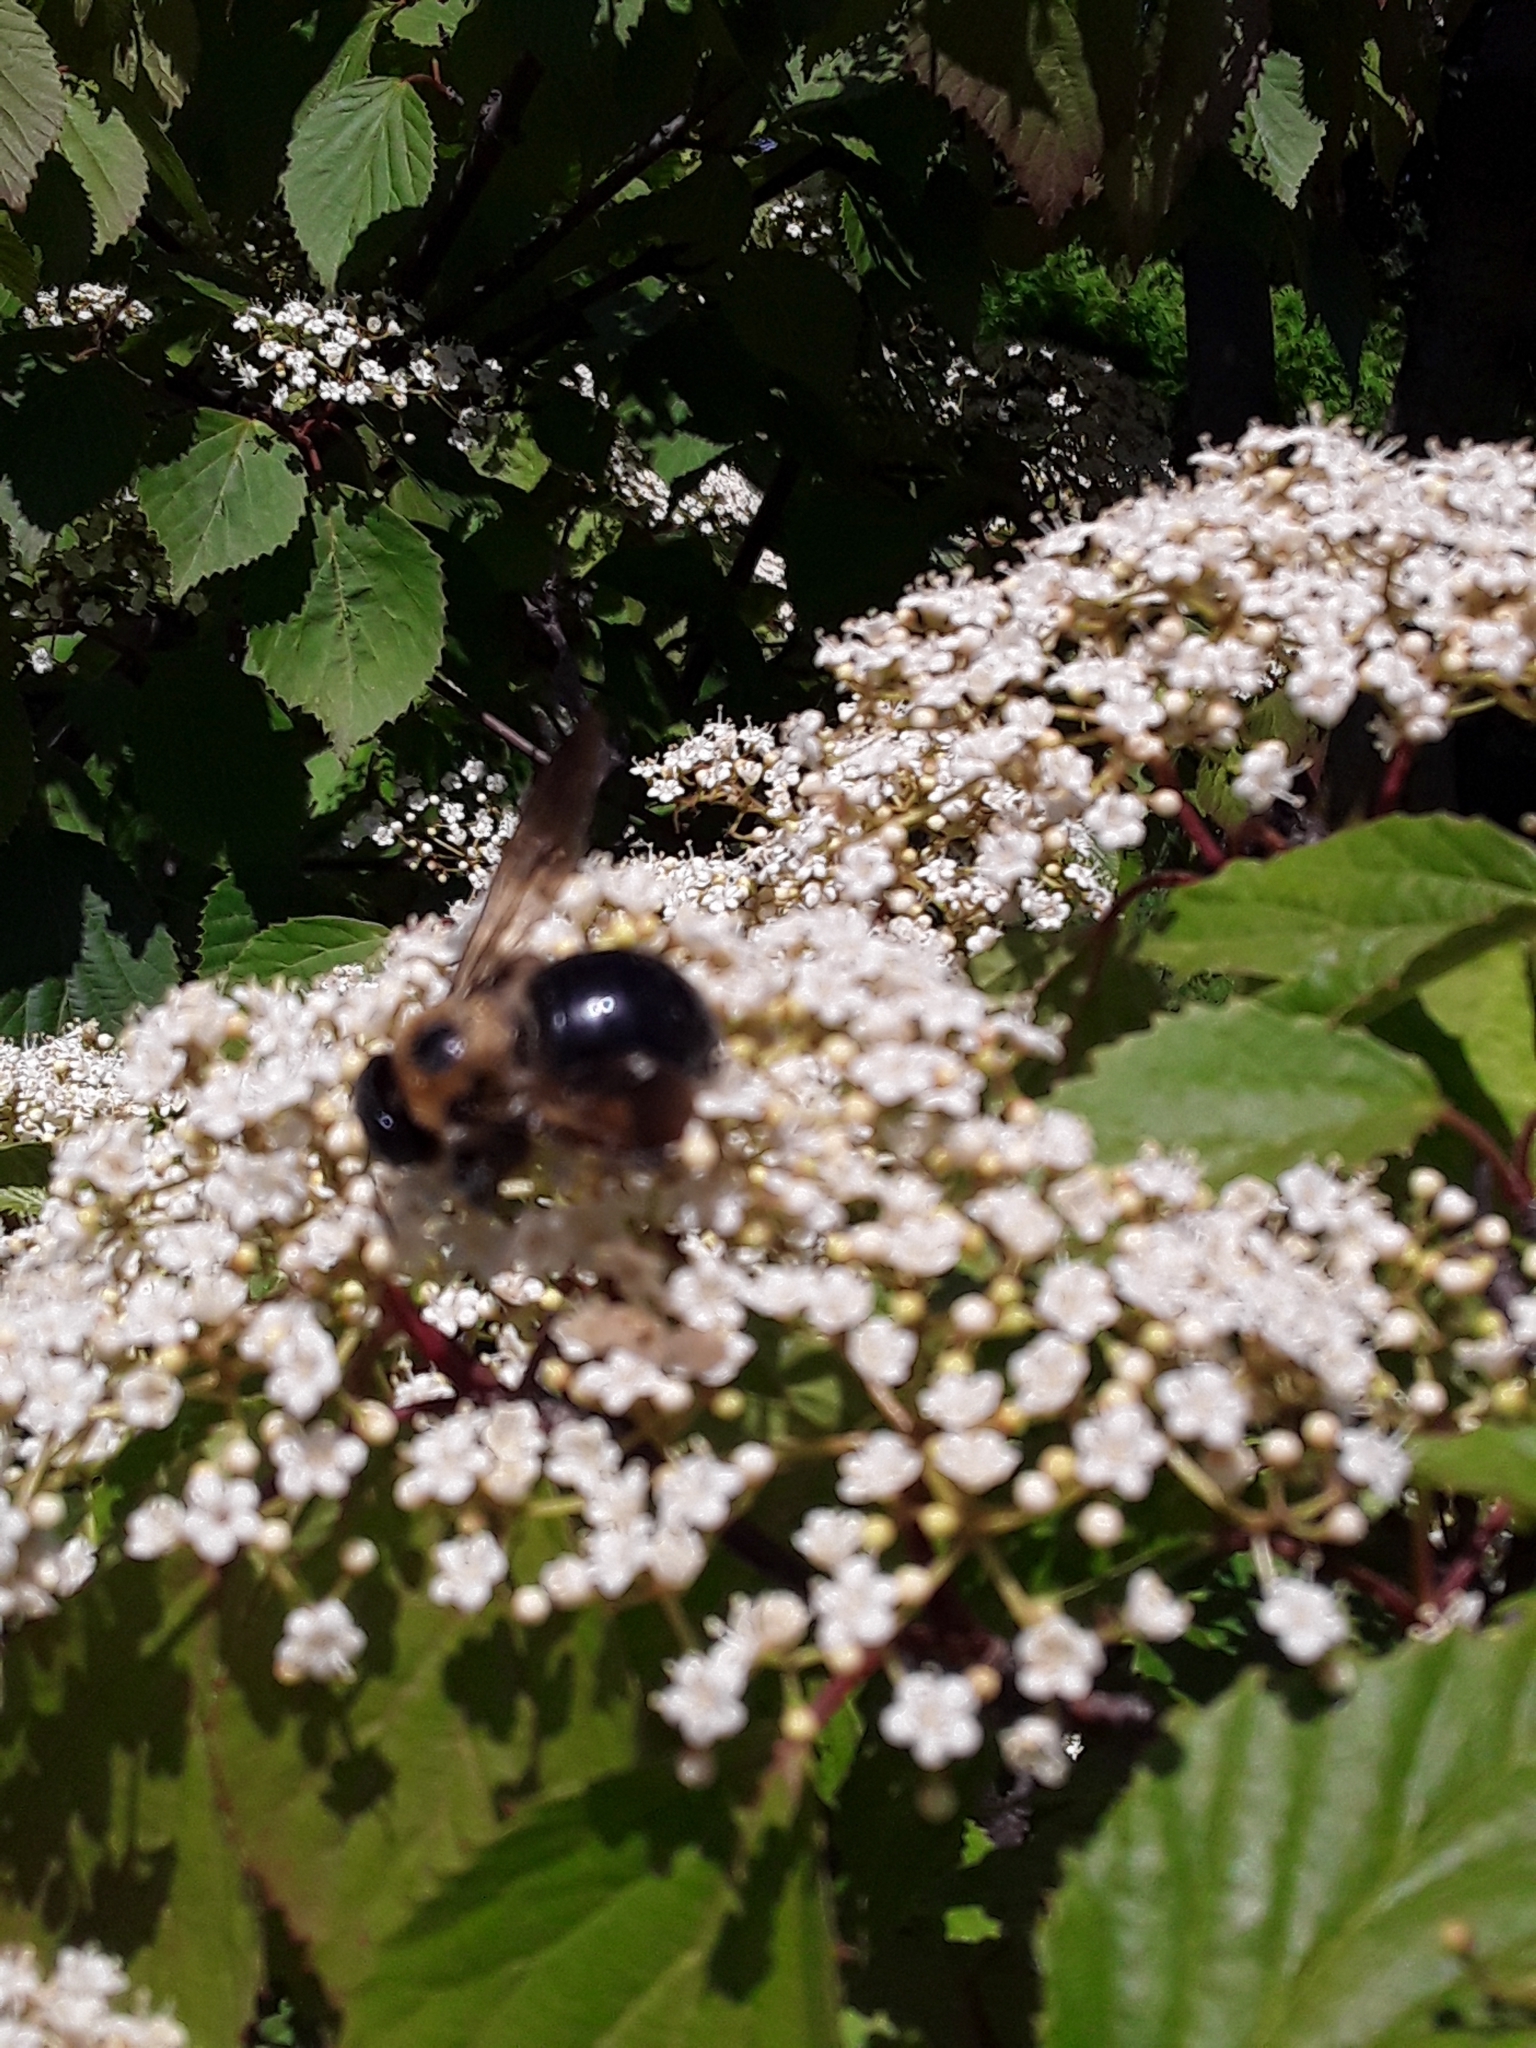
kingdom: Animalia
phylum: Arthropoda
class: Insecta
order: Hymenoptera
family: Apidae
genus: Xylocopa
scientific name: Xylocopa virginica
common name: Carpenter bee
